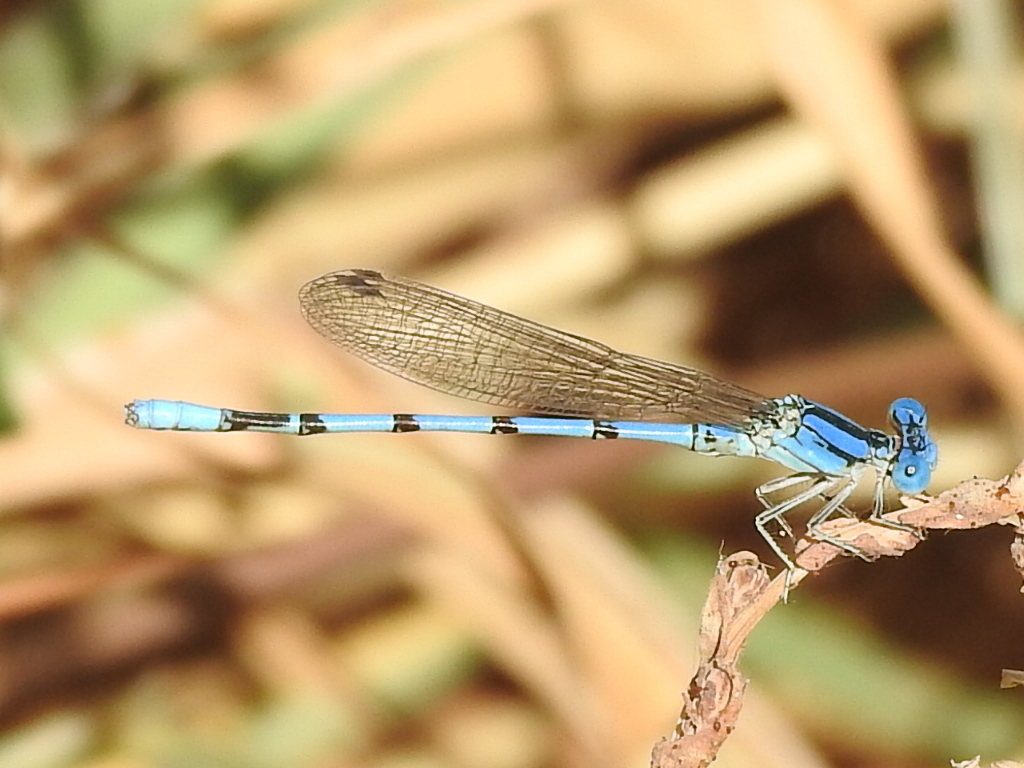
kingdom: Animalia
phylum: Arthropoda
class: Insecta
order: Odonata
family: Coenagrionidae
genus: Argia
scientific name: Argia nahuana
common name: Aztec dancer
